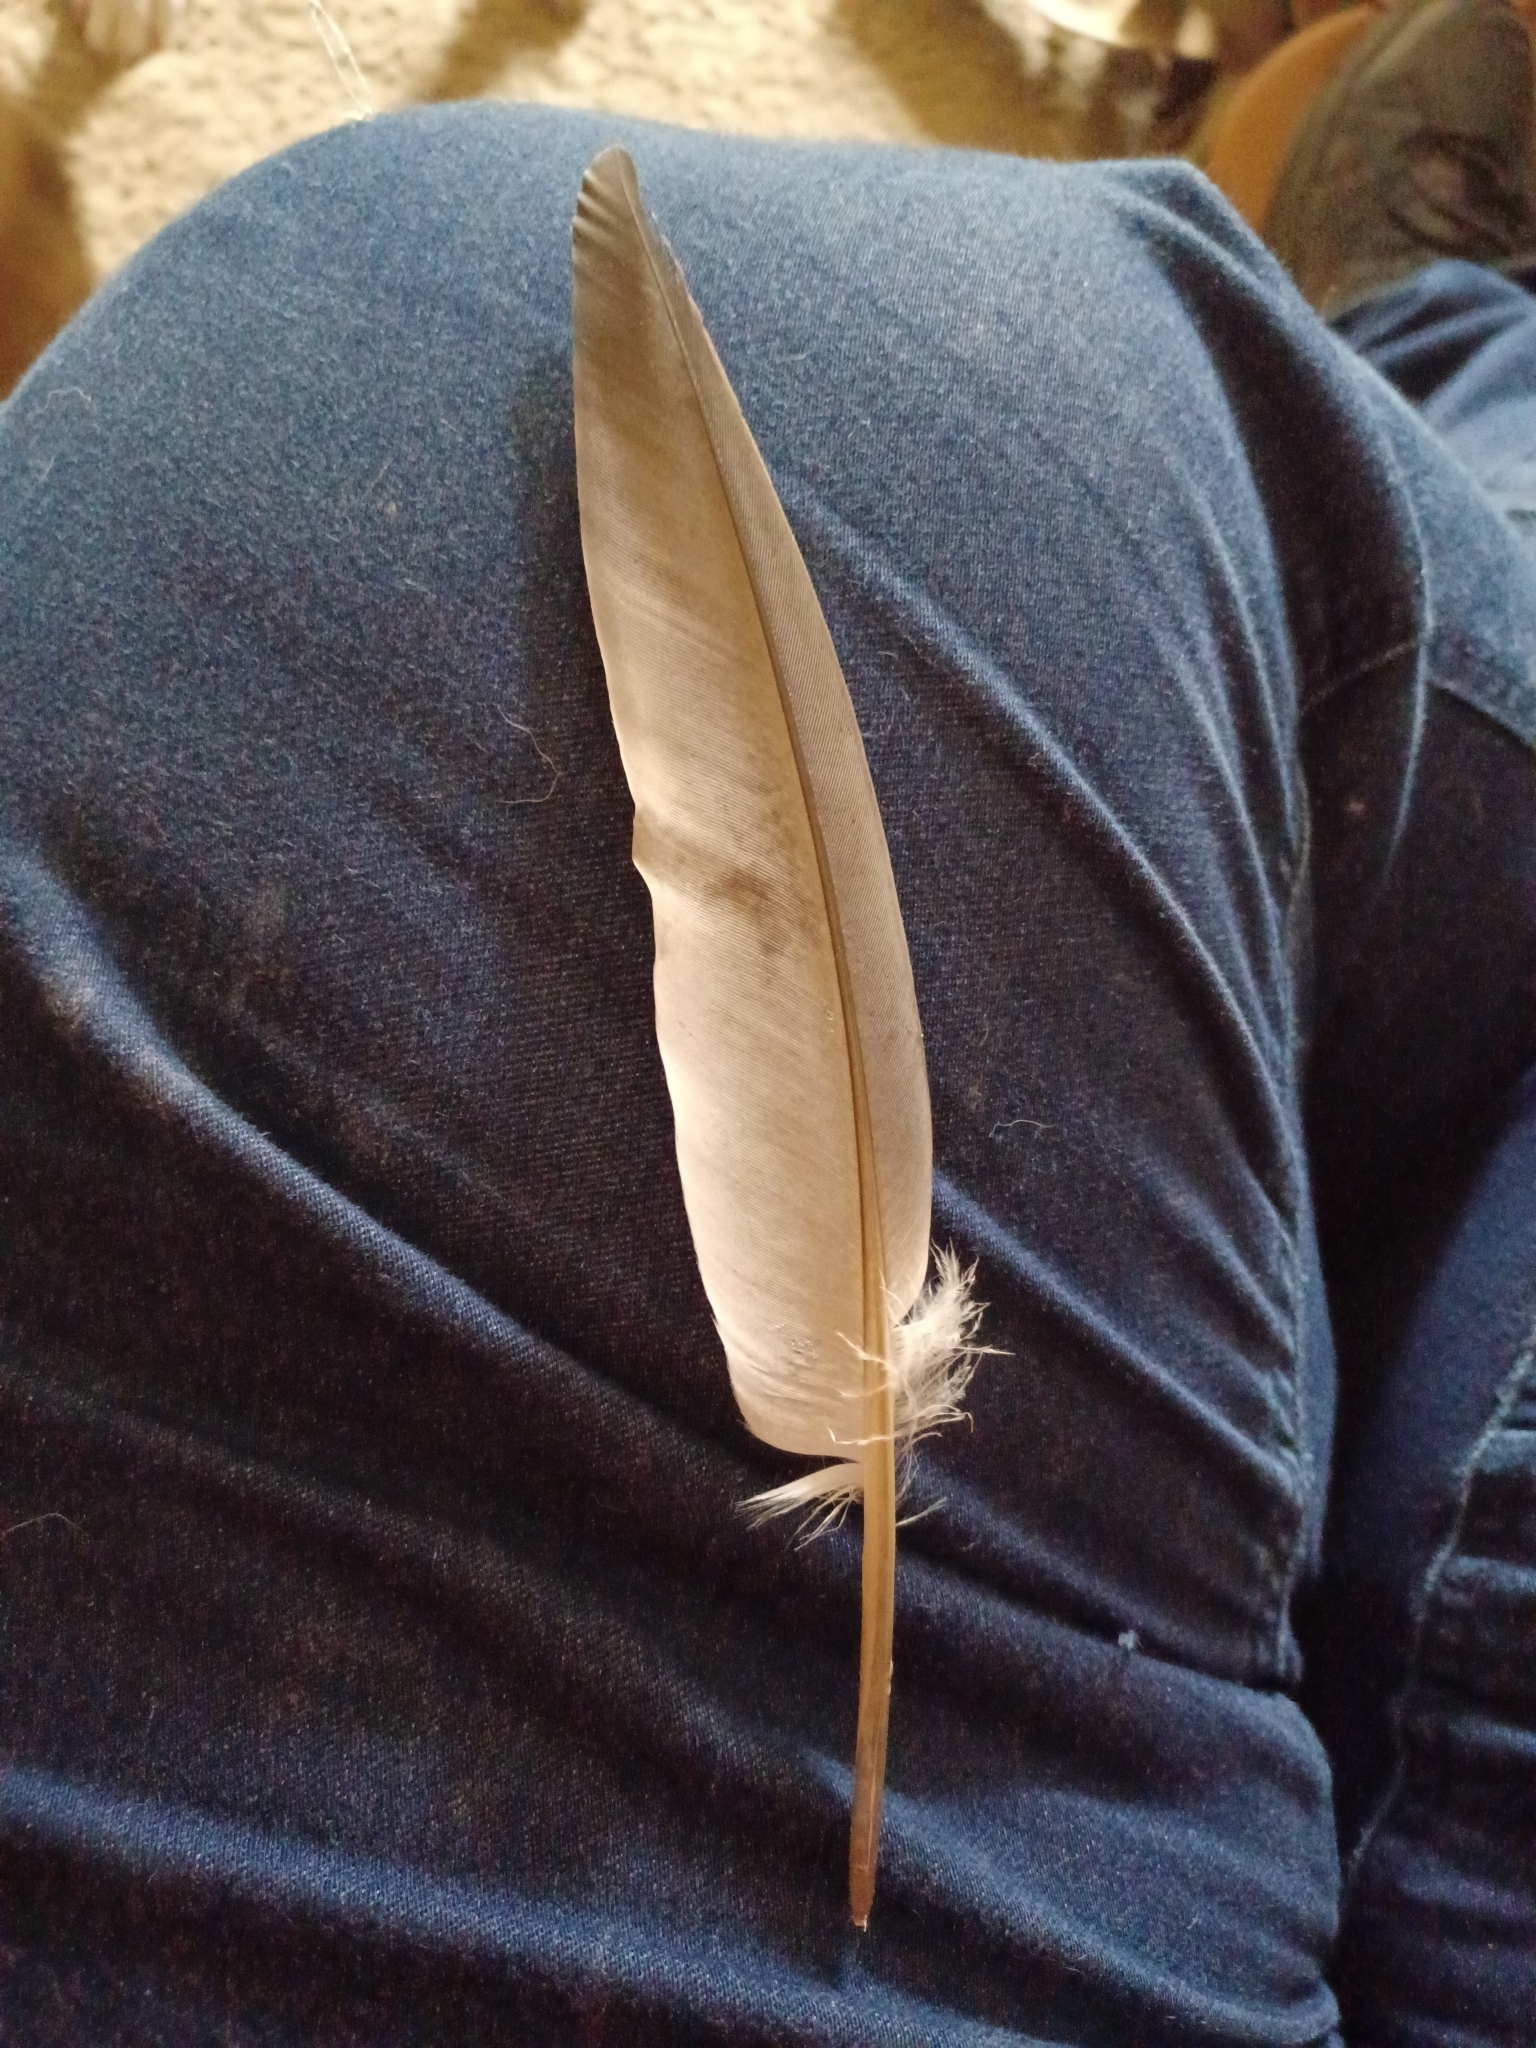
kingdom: Animalia
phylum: Chordata
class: Aves
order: Columbiformes
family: Columbidae
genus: Columba
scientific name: Columba livia
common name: Rock pigeon
